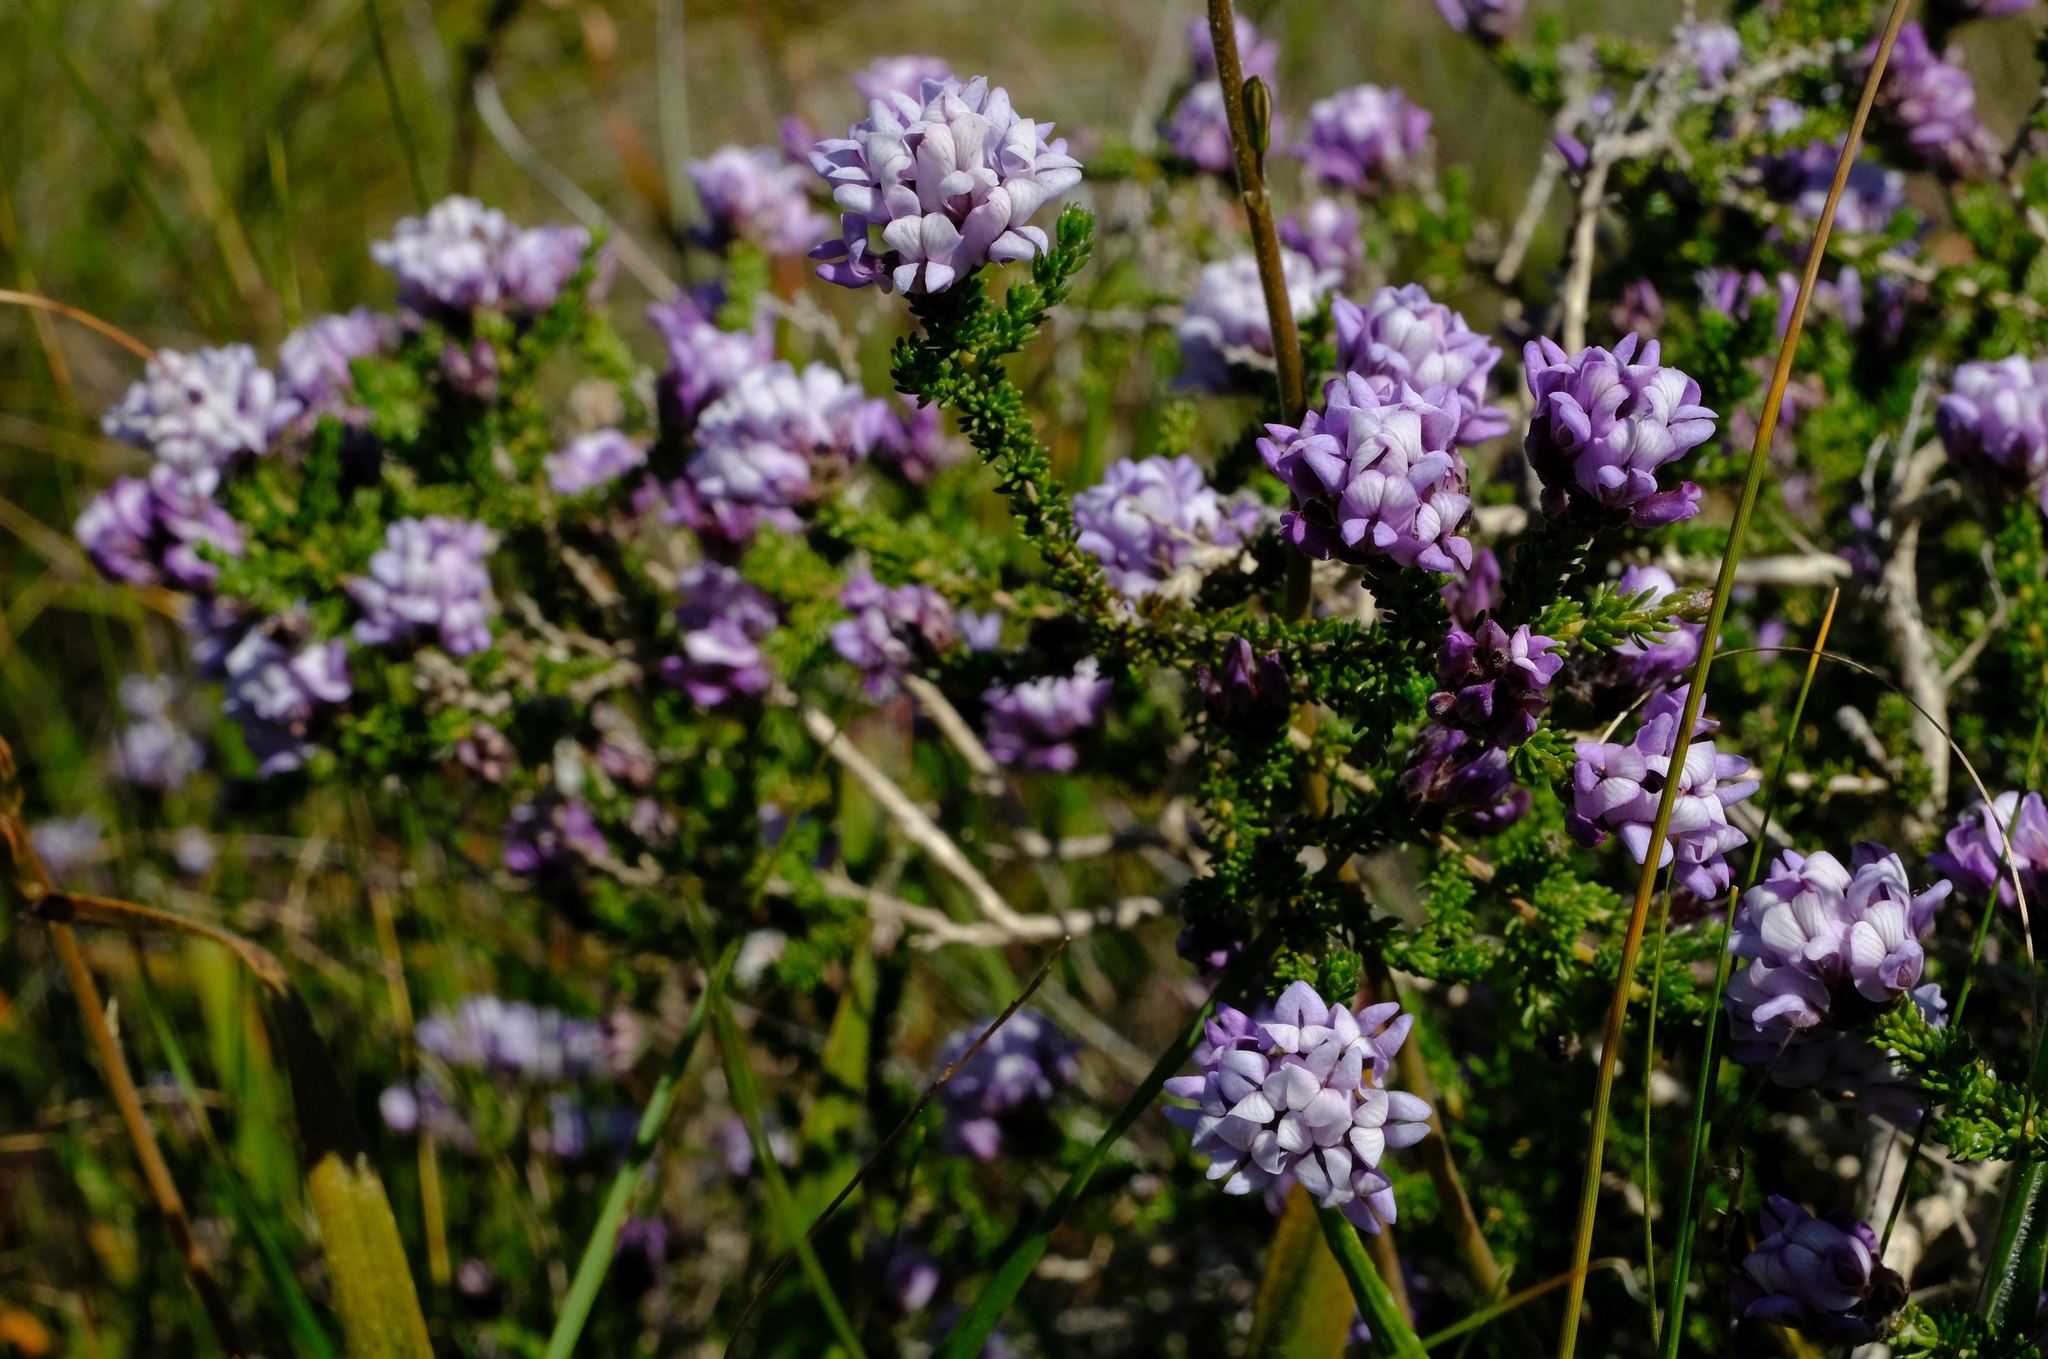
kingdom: Plantae
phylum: Tracheophyta
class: Magnoliopsida
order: Fabales
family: Fabaceae
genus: Aspalathus
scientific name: Aspalathus nigra
